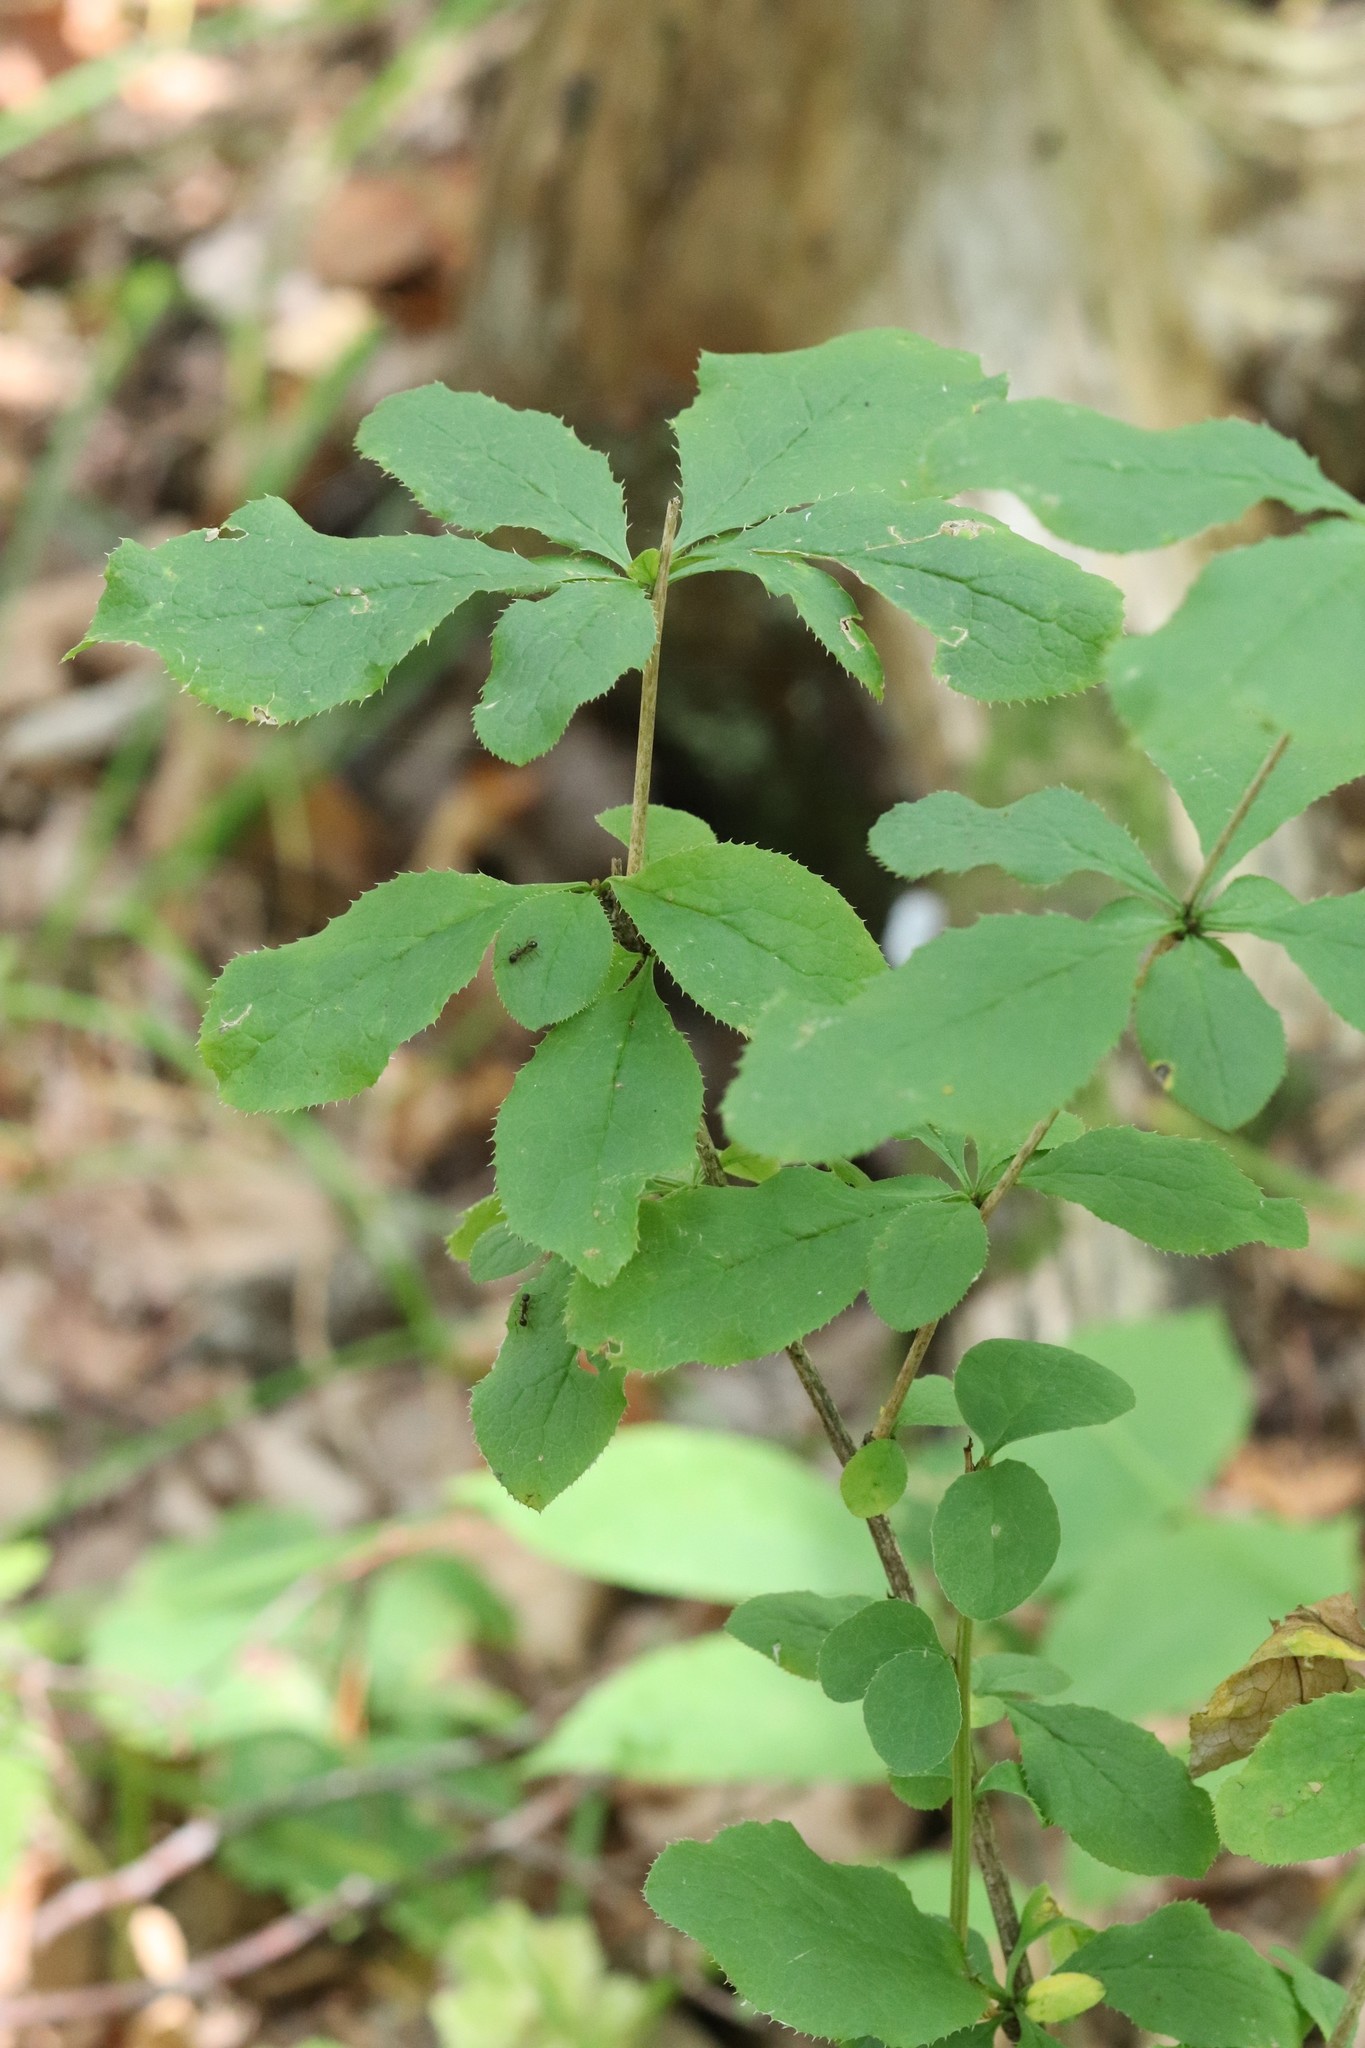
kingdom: Plantae
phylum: Tracheophyta
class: Magnoliopsida
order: Ranunculales
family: Berberidaceae
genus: Berberis
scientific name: Berberis amurensis
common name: Amur barberry
